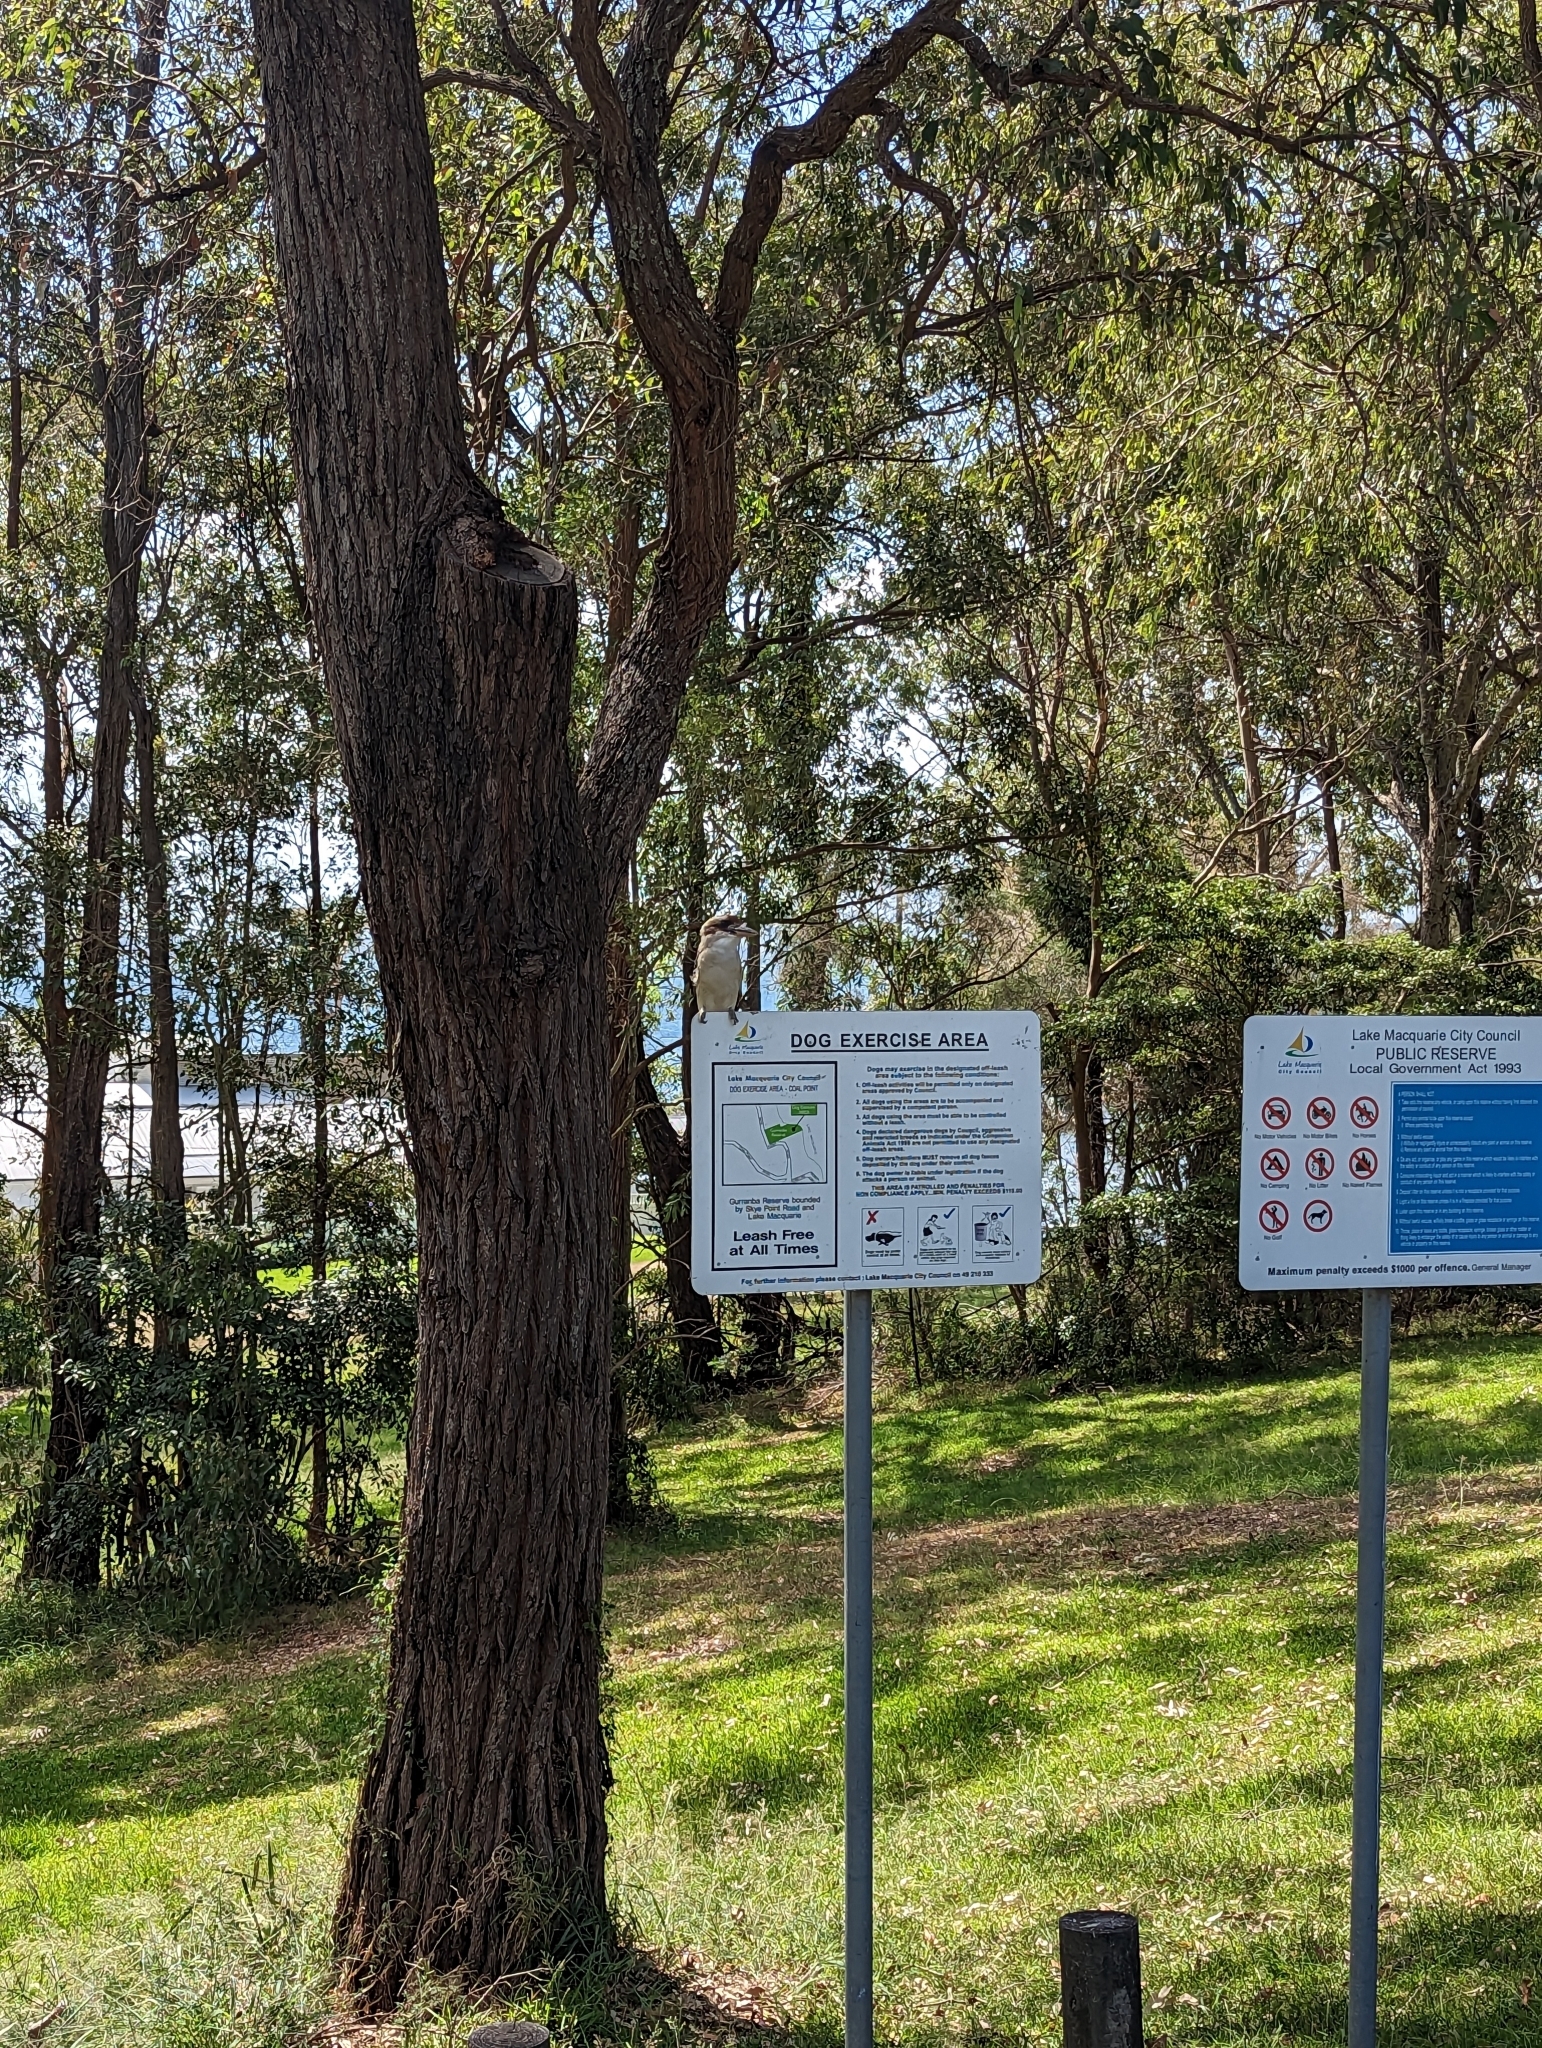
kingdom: Animalia
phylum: Chordata
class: Aves
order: Coraciiformes
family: Alcedinidae
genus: Dacelo
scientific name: Dacelo novaeguineae
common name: Laughing kookaburra
